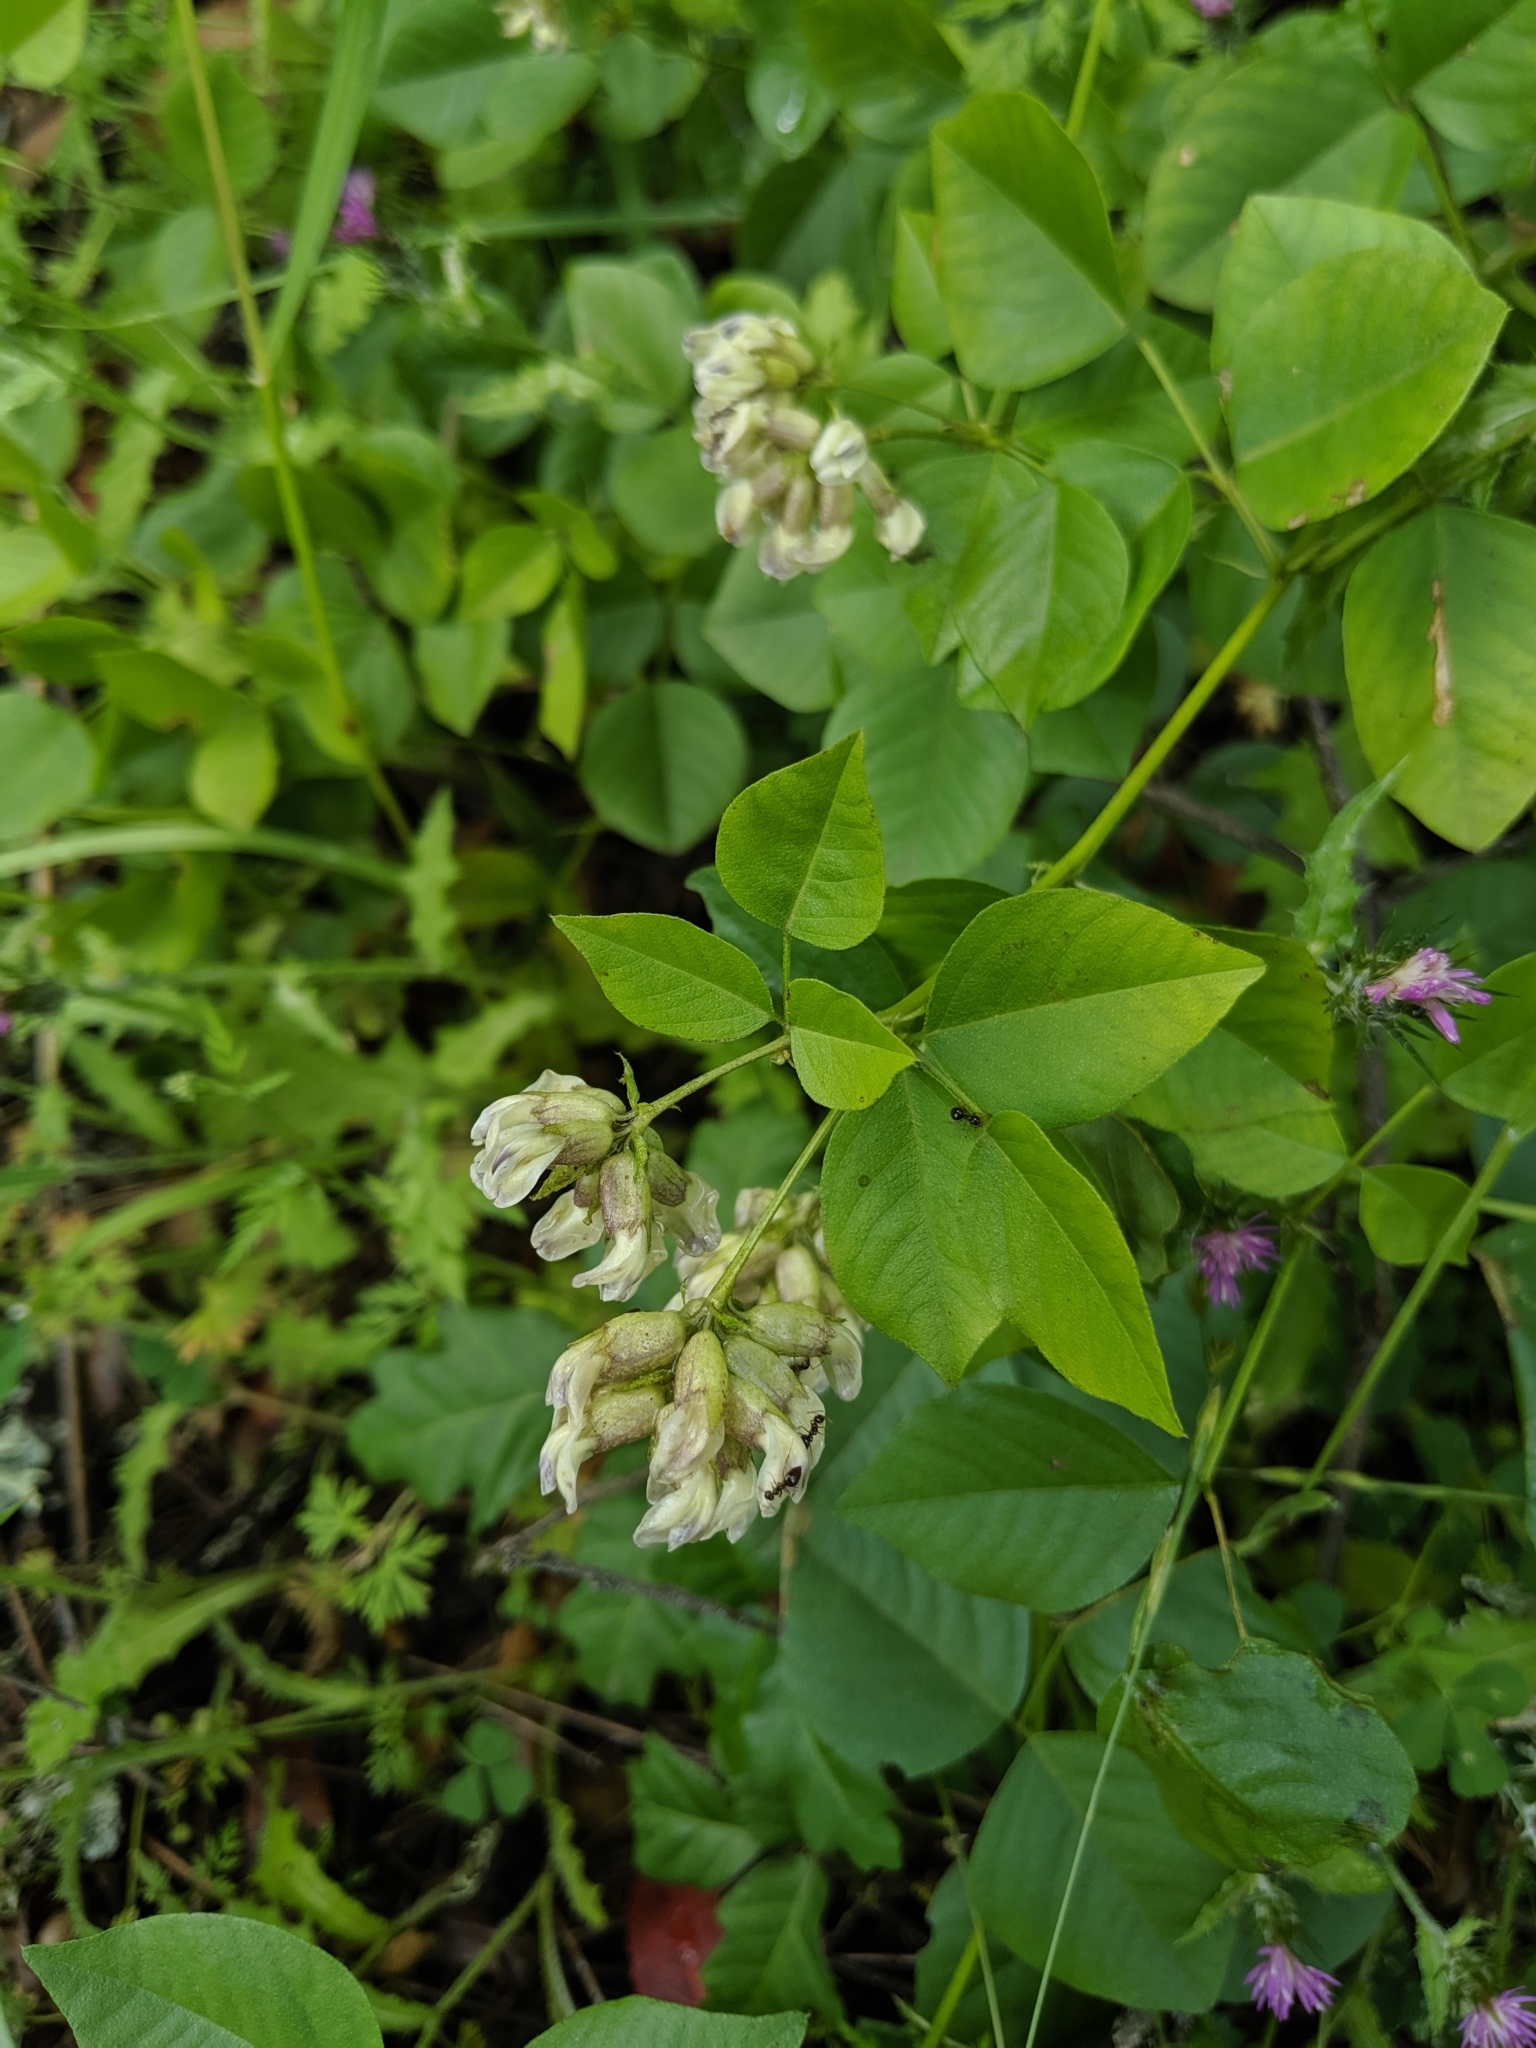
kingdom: Plantae
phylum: Tracheophyta
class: Magnoliopsida
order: Fabales
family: Fabaceae
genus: Rupertia
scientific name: Rupertia physodes
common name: California-tea
